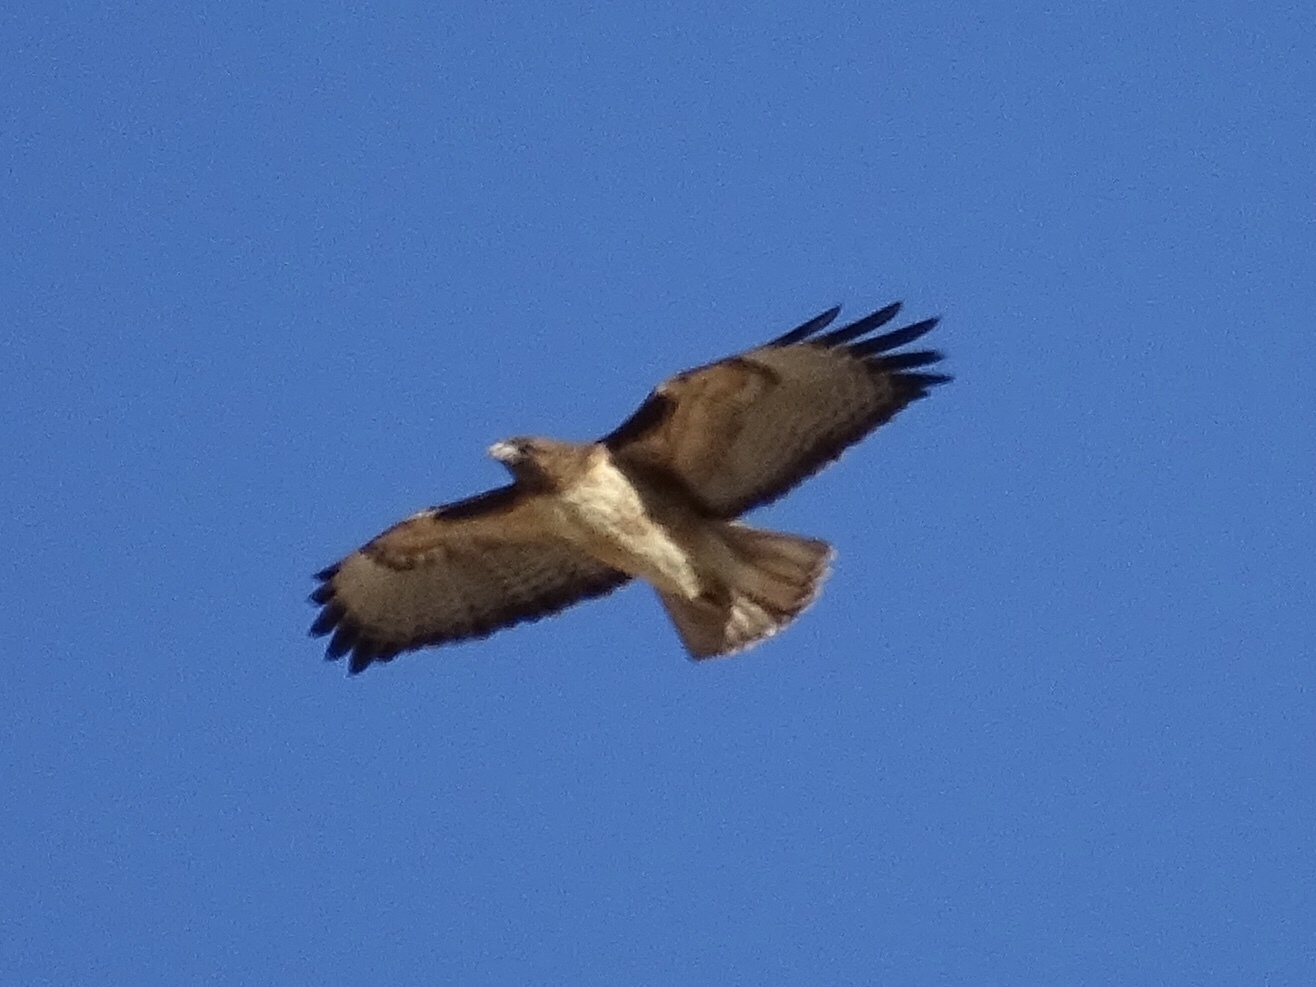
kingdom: Animalia
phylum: Chordata
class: Aves
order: Accipitriformes
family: Accipitridae
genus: Buteo
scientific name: Buteo jamaicensis
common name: Red-tailed hawk
